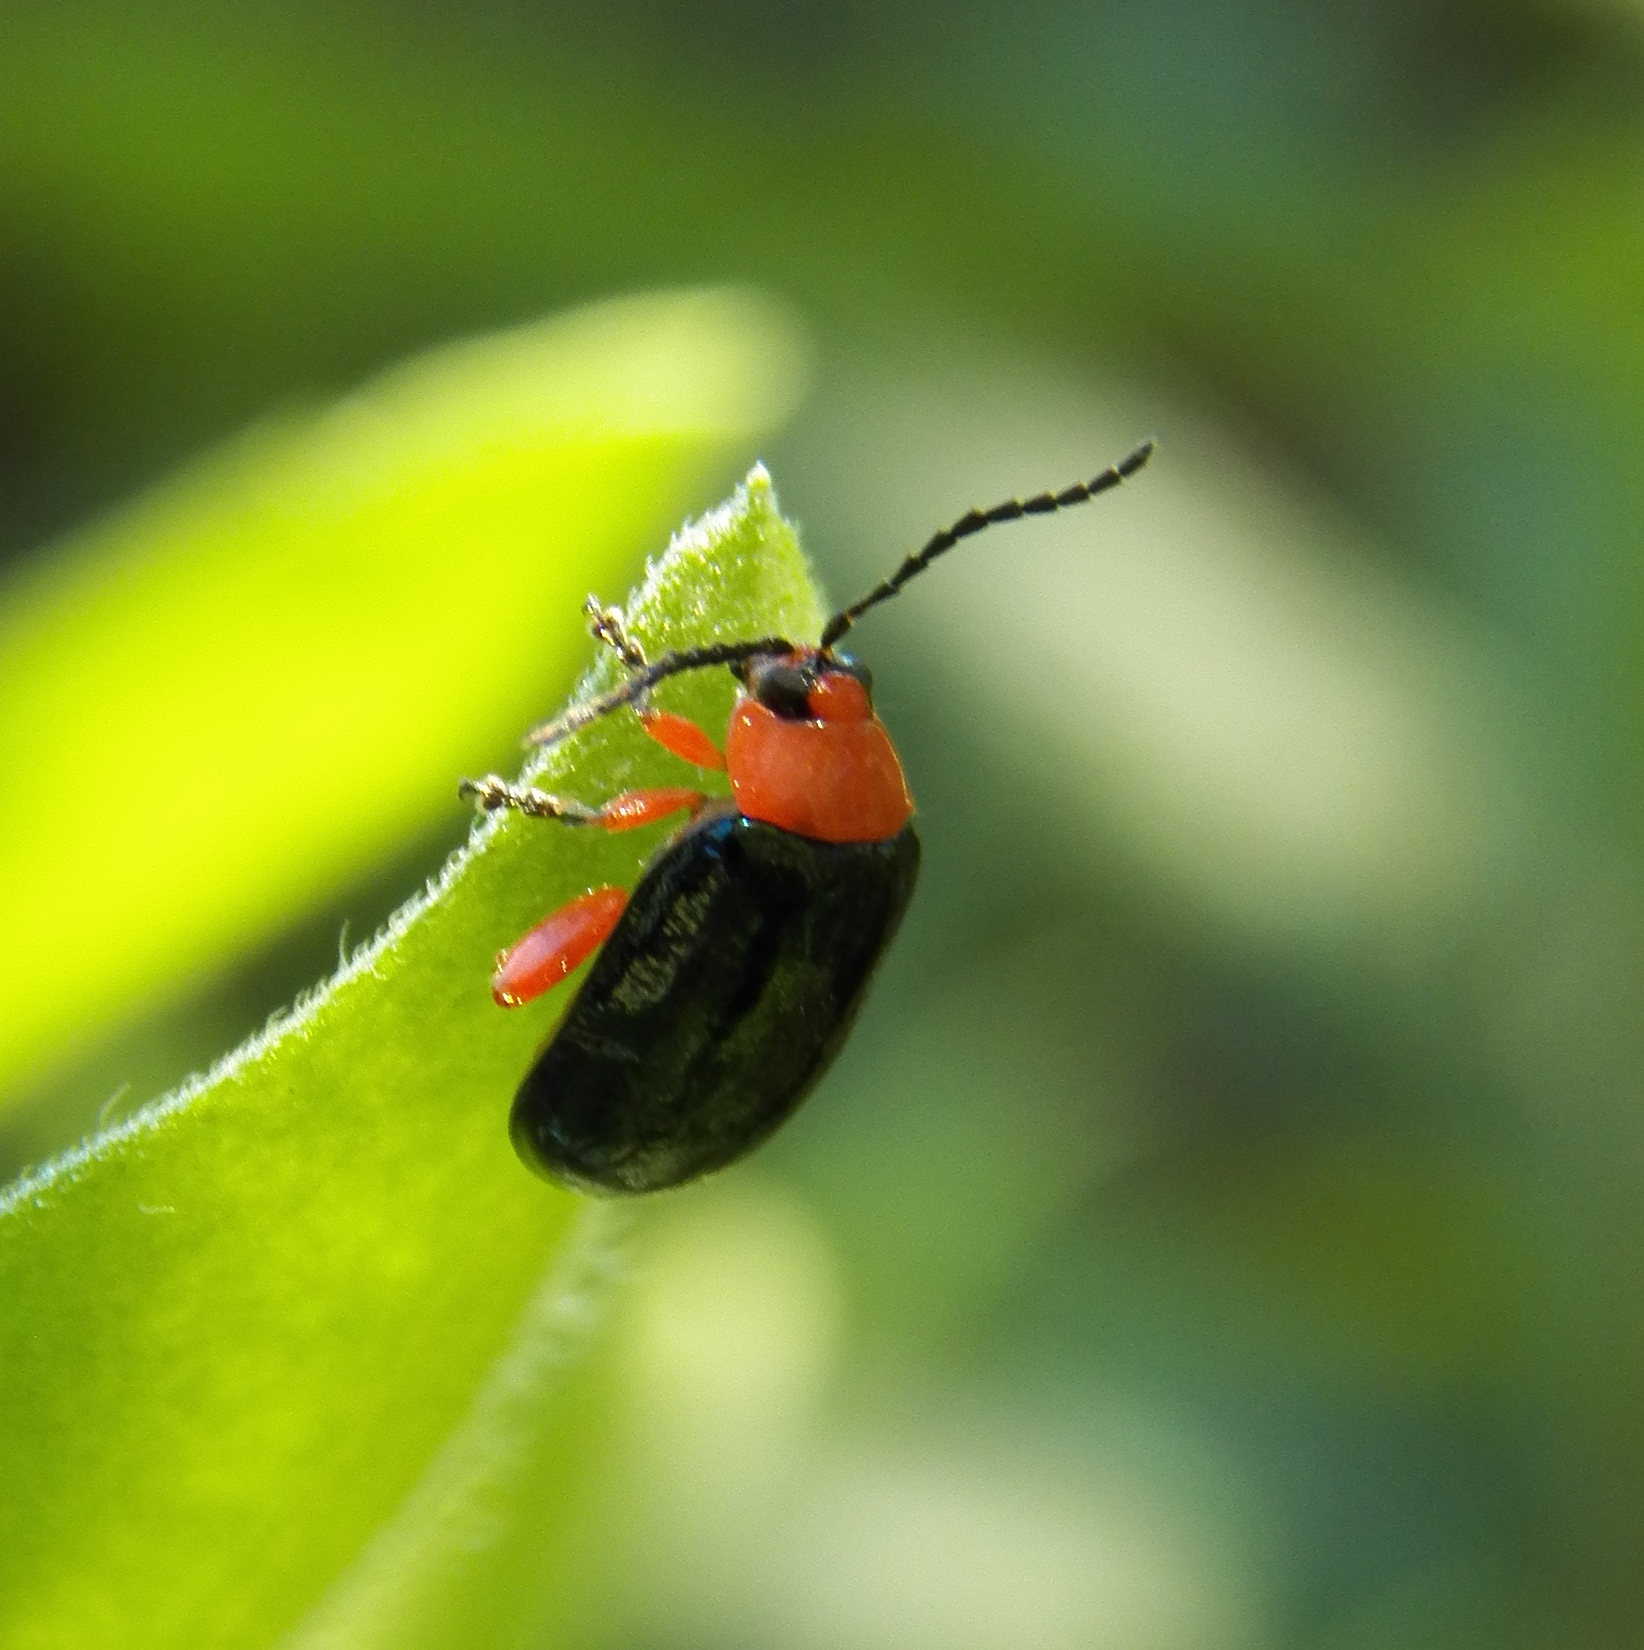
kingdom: Animalia
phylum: Arthropoda
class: Insecta
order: Coleoptera
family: Chrysomelidae
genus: Asphaera
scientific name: Asphaera lustrans
